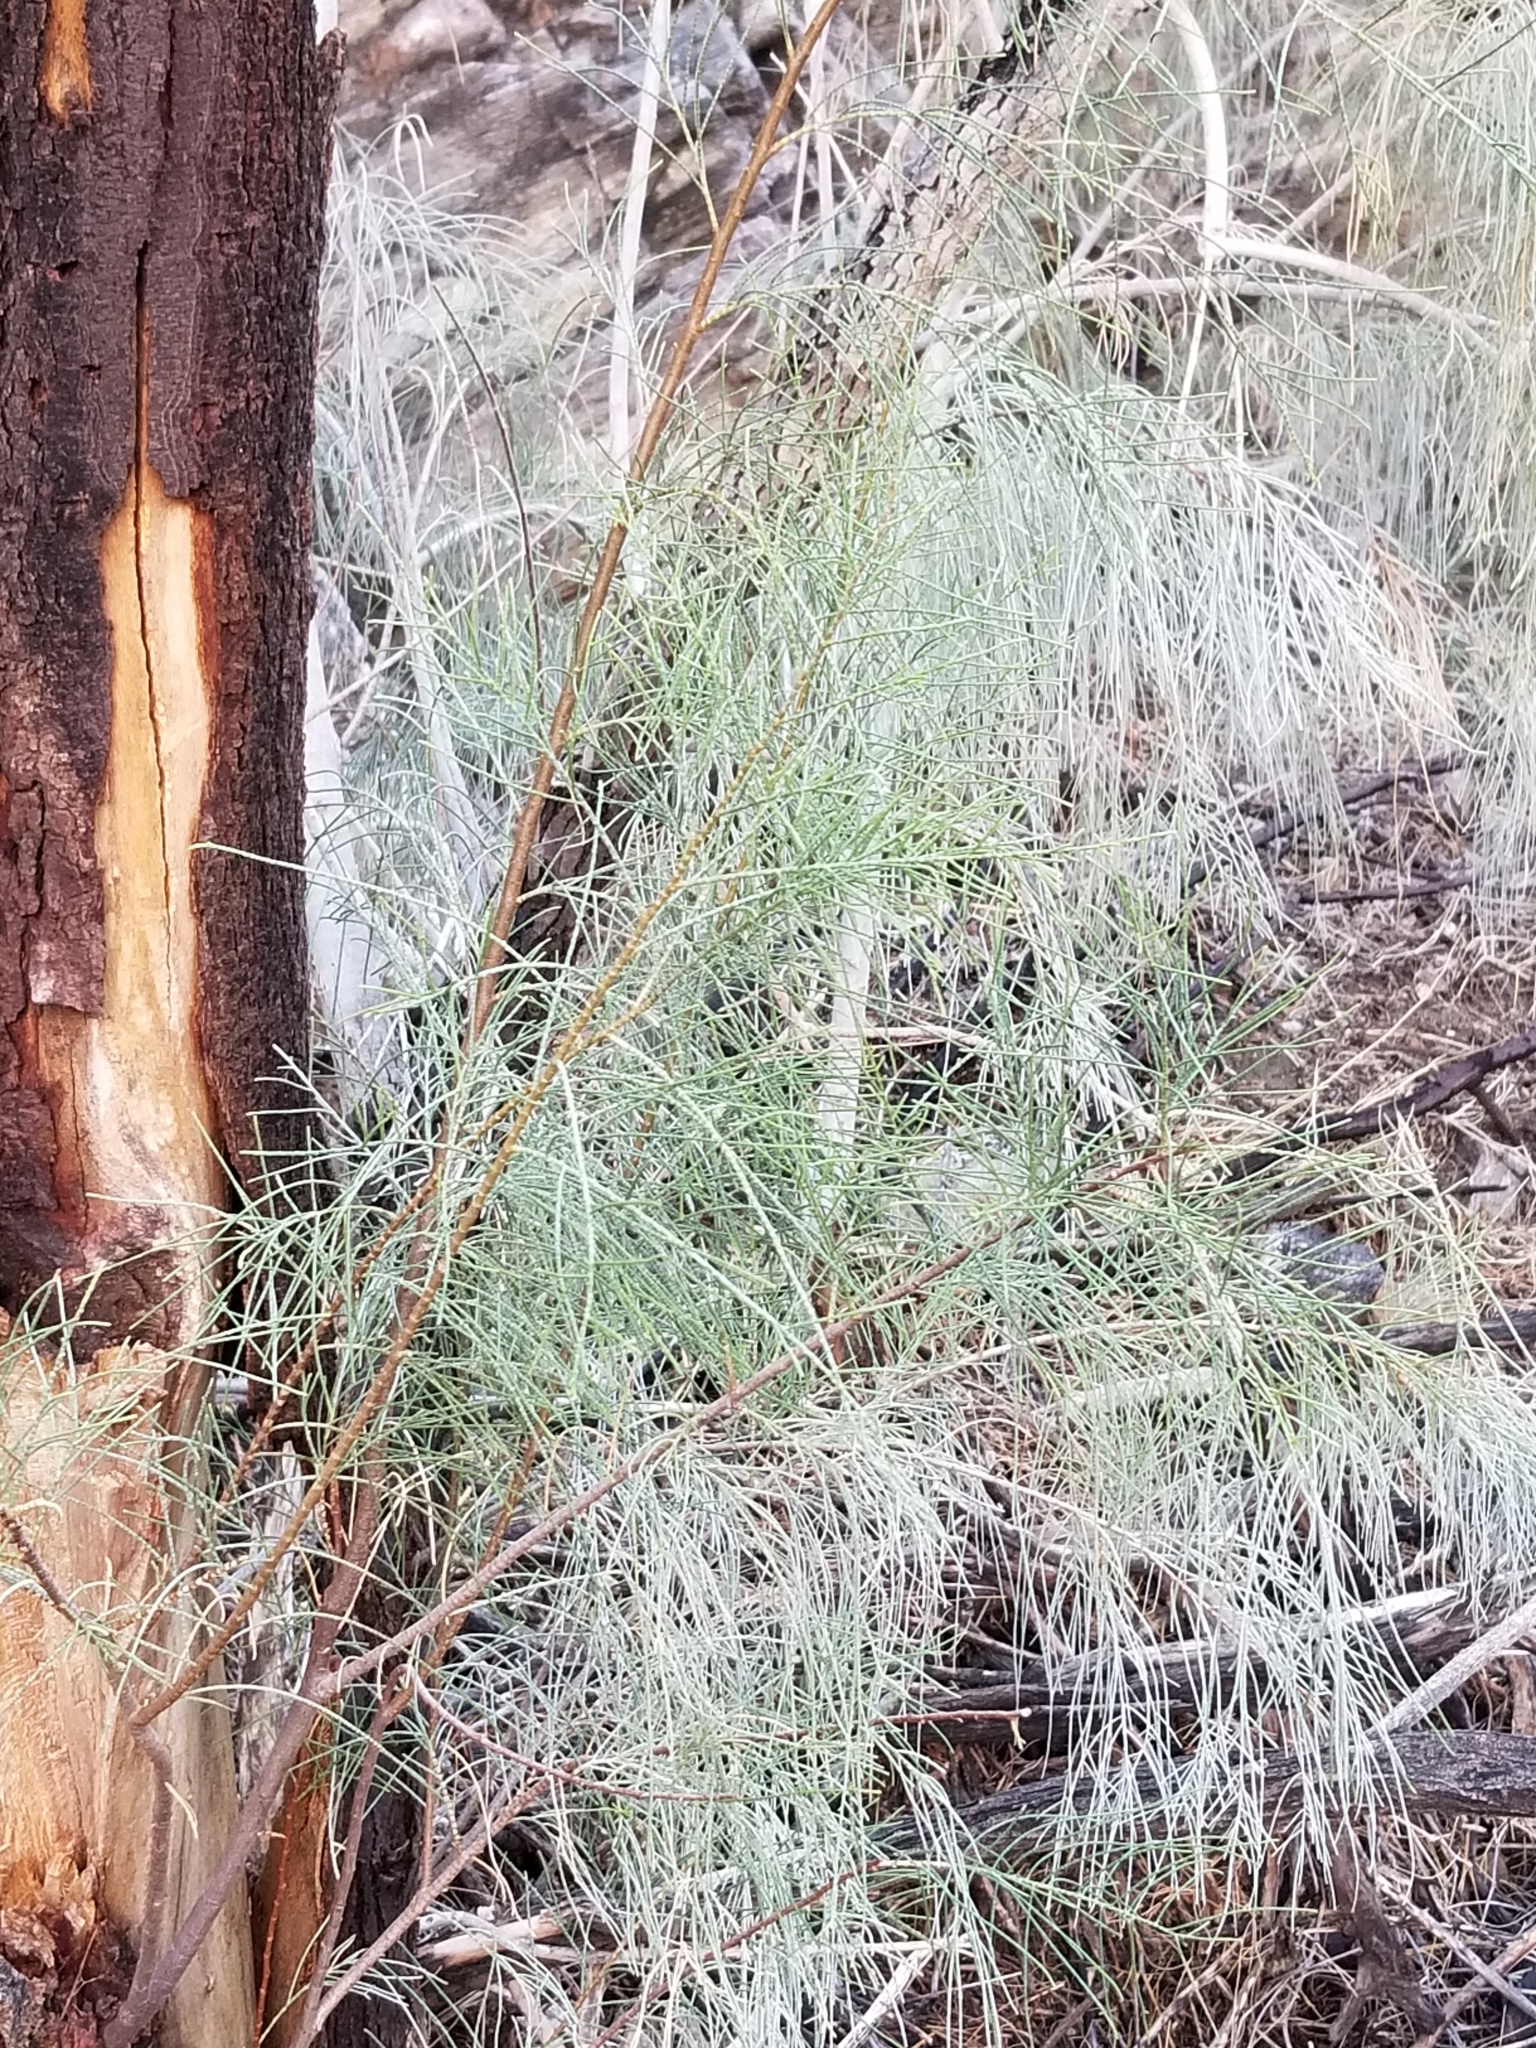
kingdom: Plantae
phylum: Tracheophyta
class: Magnoliopsida
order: Caryophyllales
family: Tamaricaceae
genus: Tamarix
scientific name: Tamarix ramosissima
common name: Pink tamarisk
